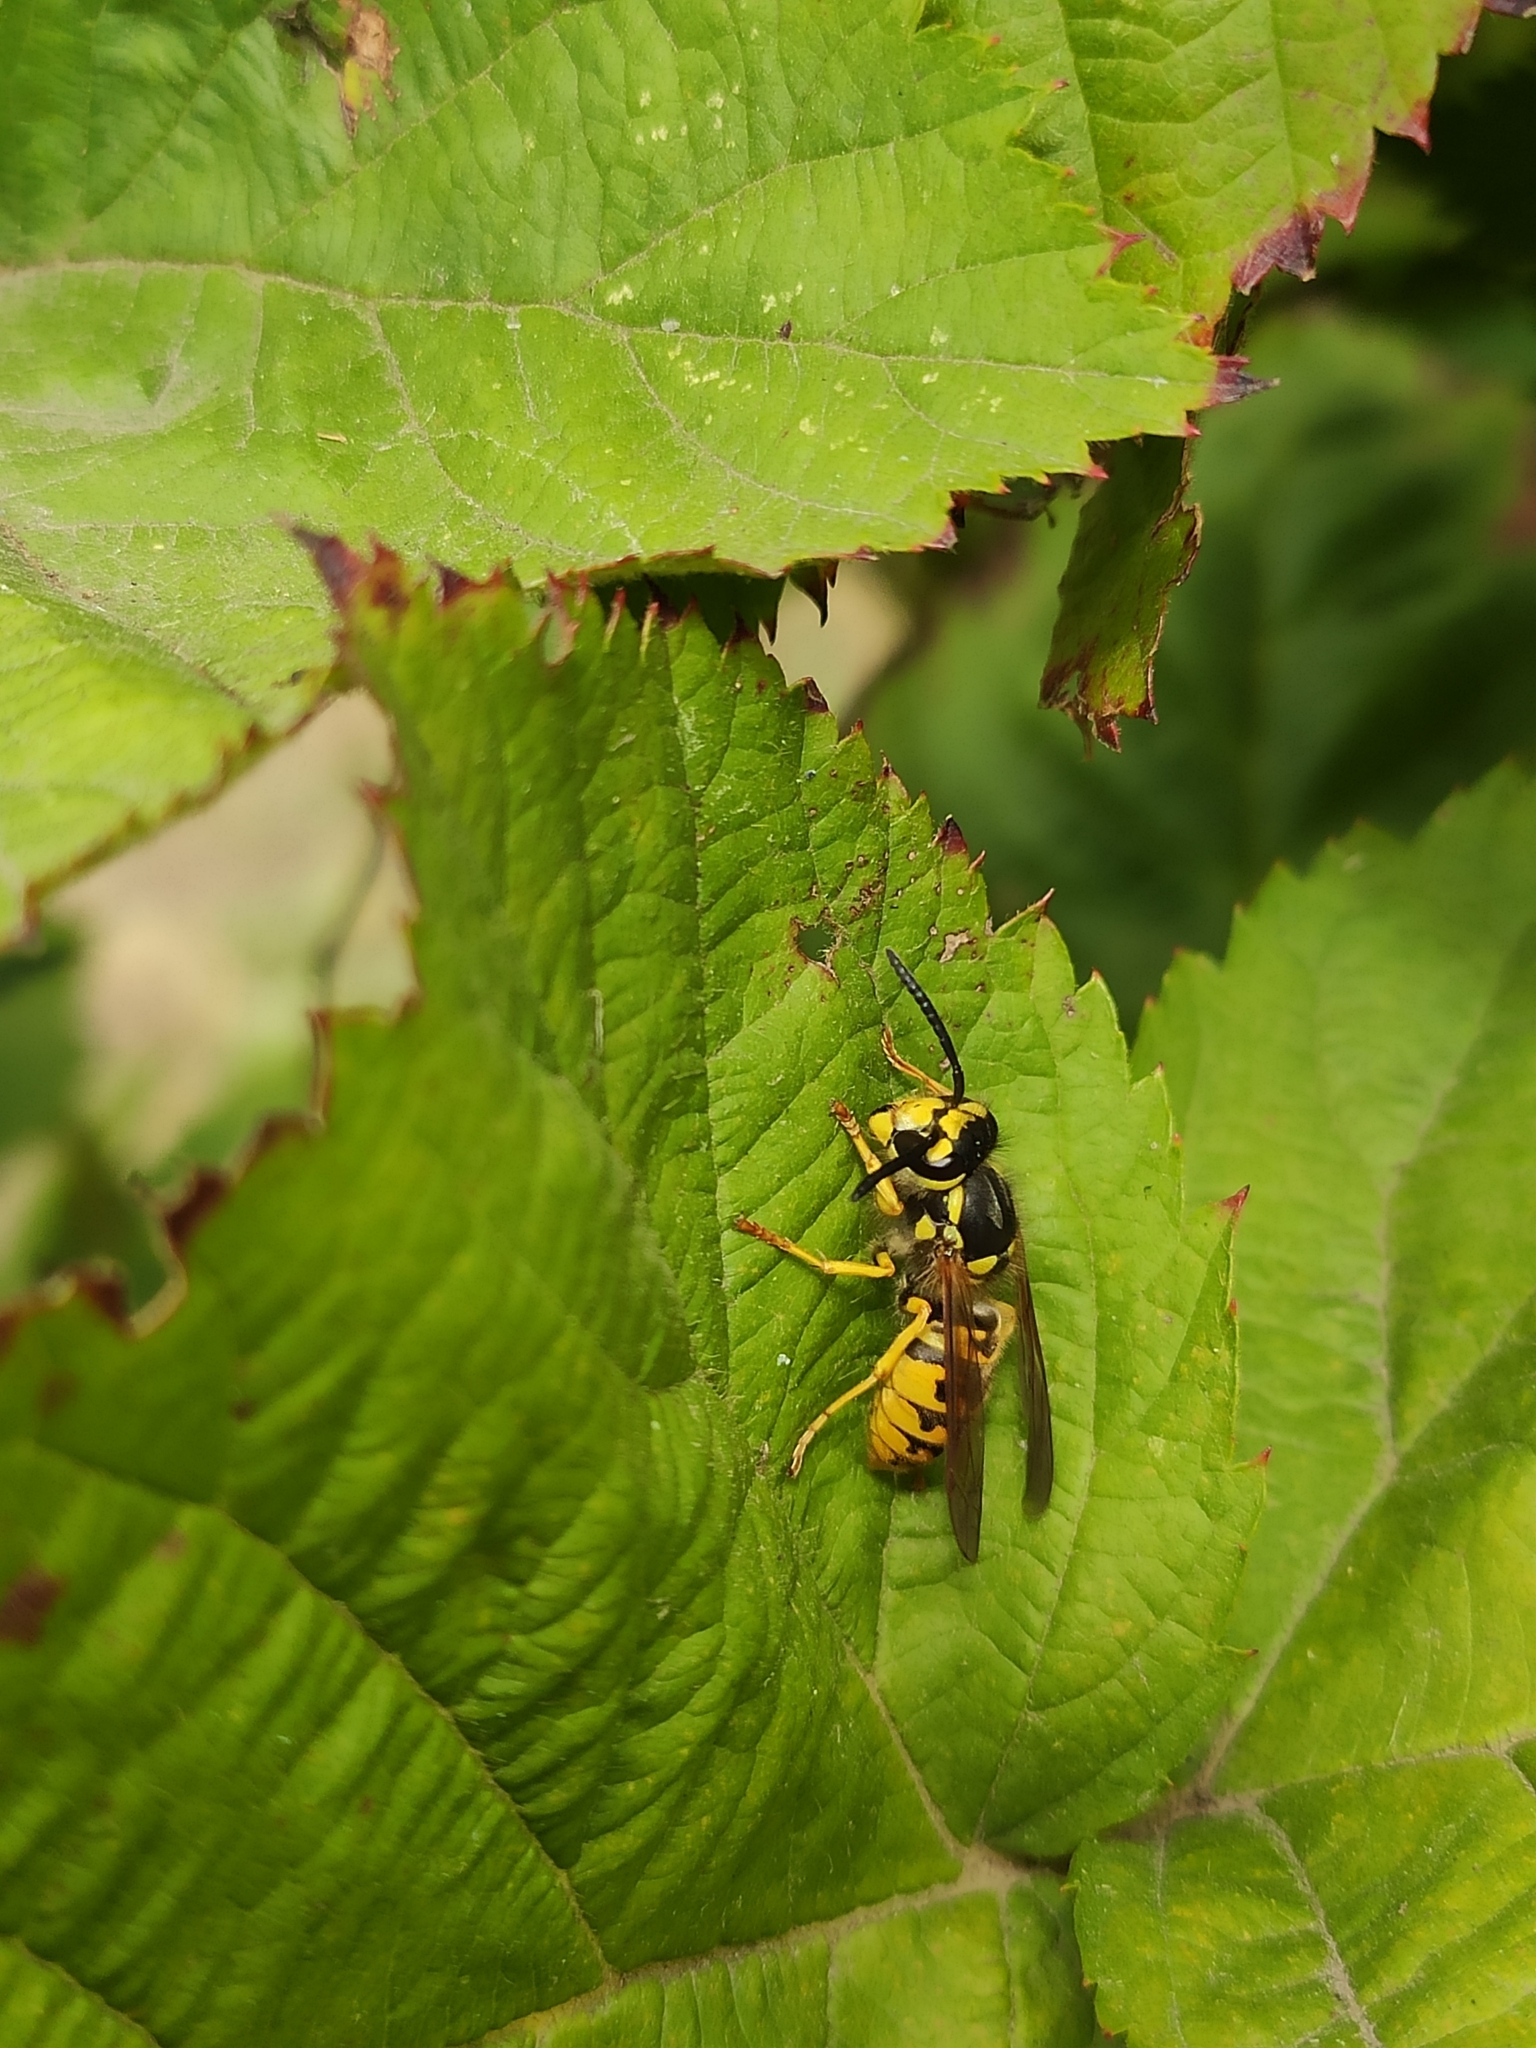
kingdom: Animalia
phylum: Arthropoda
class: Insecta
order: Hymenoptera
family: Vespidae
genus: Vespula
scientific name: Vespula germanica
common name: German wasp
